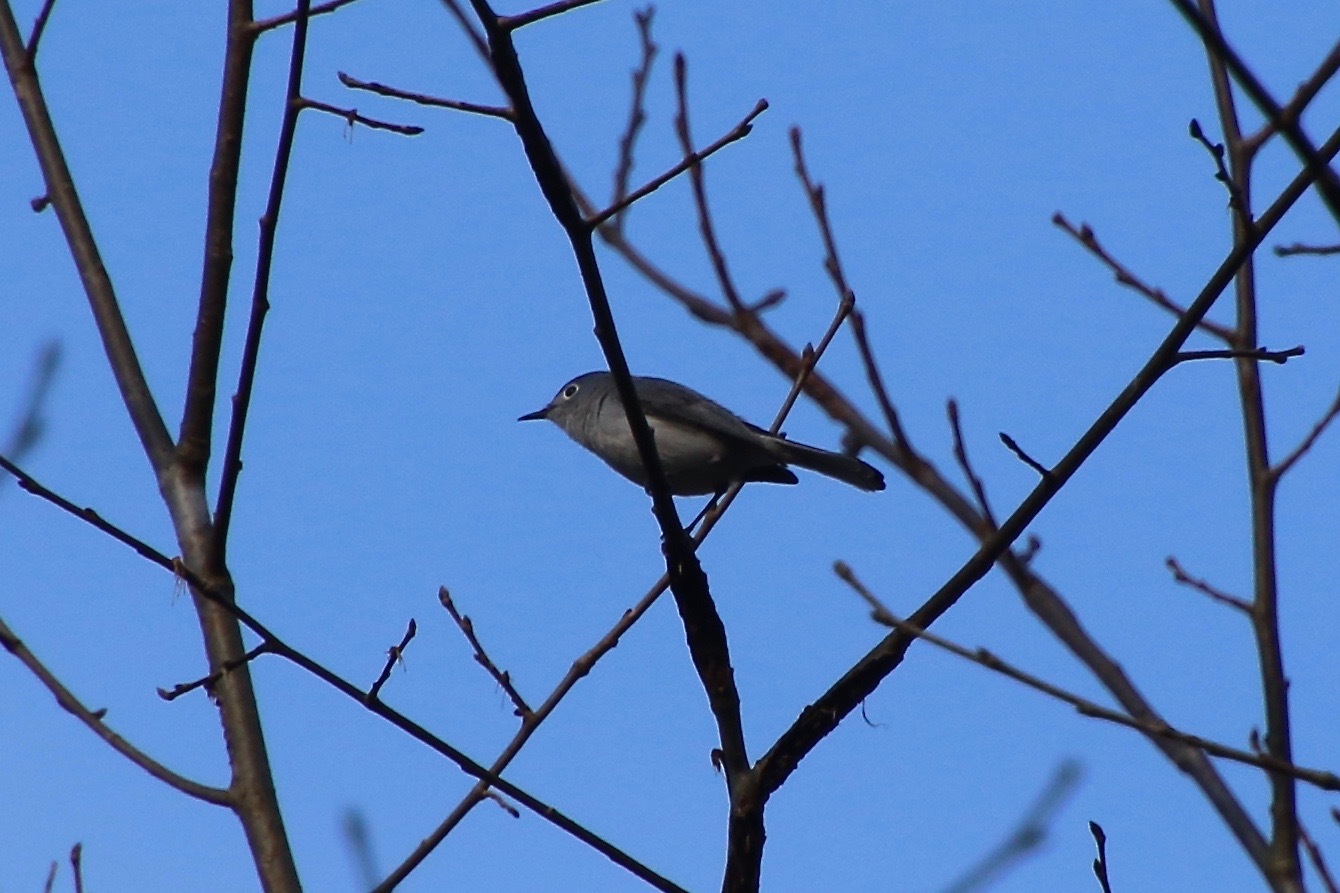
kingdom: Animalia
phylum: Chordata
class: Aves
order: Passeriformes
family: Polioptilidae
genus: Polioptila
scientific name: Polioptila caerulea
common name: Blue-gray gnatcatcher
